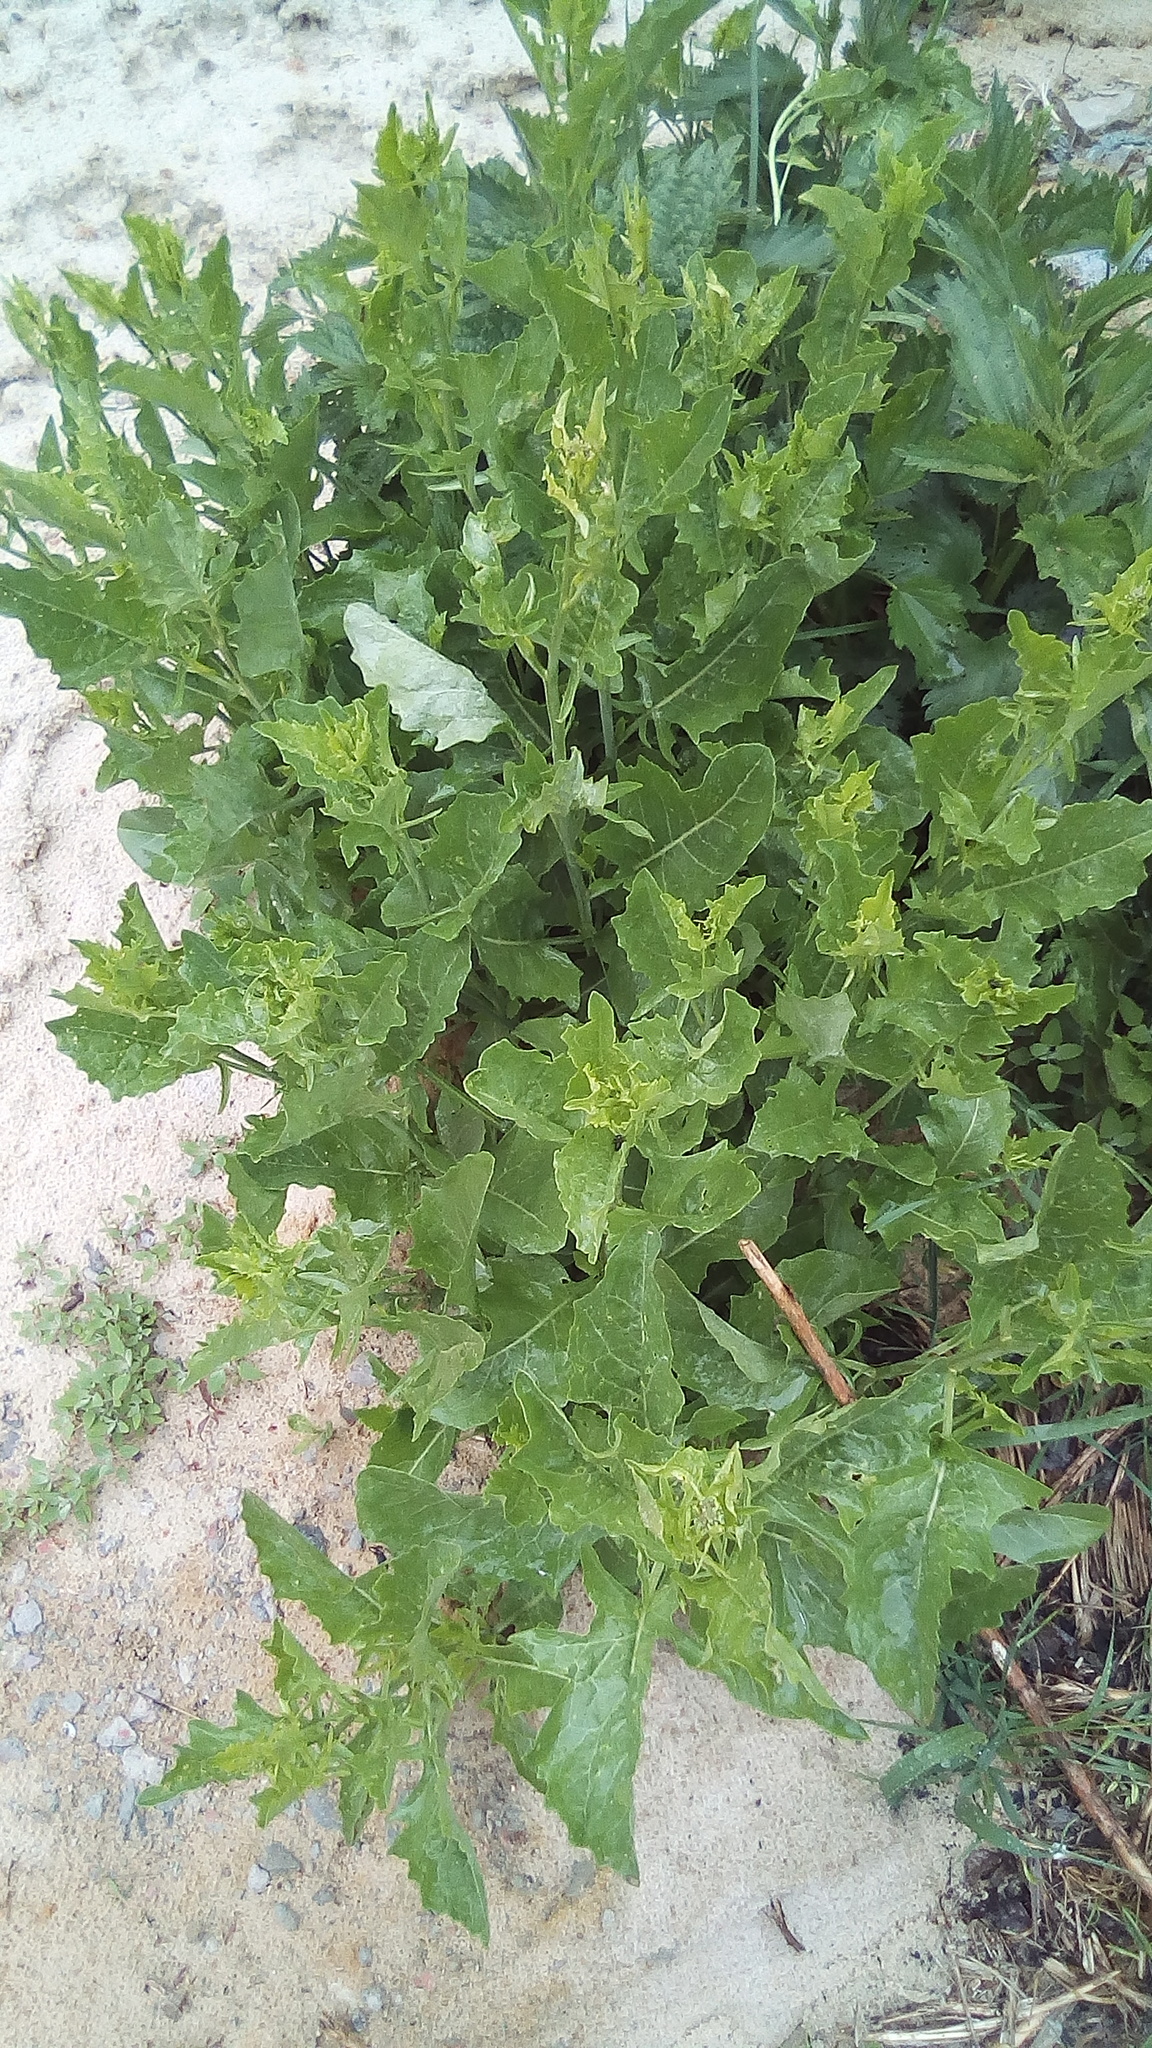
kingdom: Plantae
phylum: Tracheophyta
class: Magnoliopsida
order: Brassicales
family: Brassicaceae
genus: Sisymbrium
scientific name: Sisymbrium volgense
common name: Russian mustard
